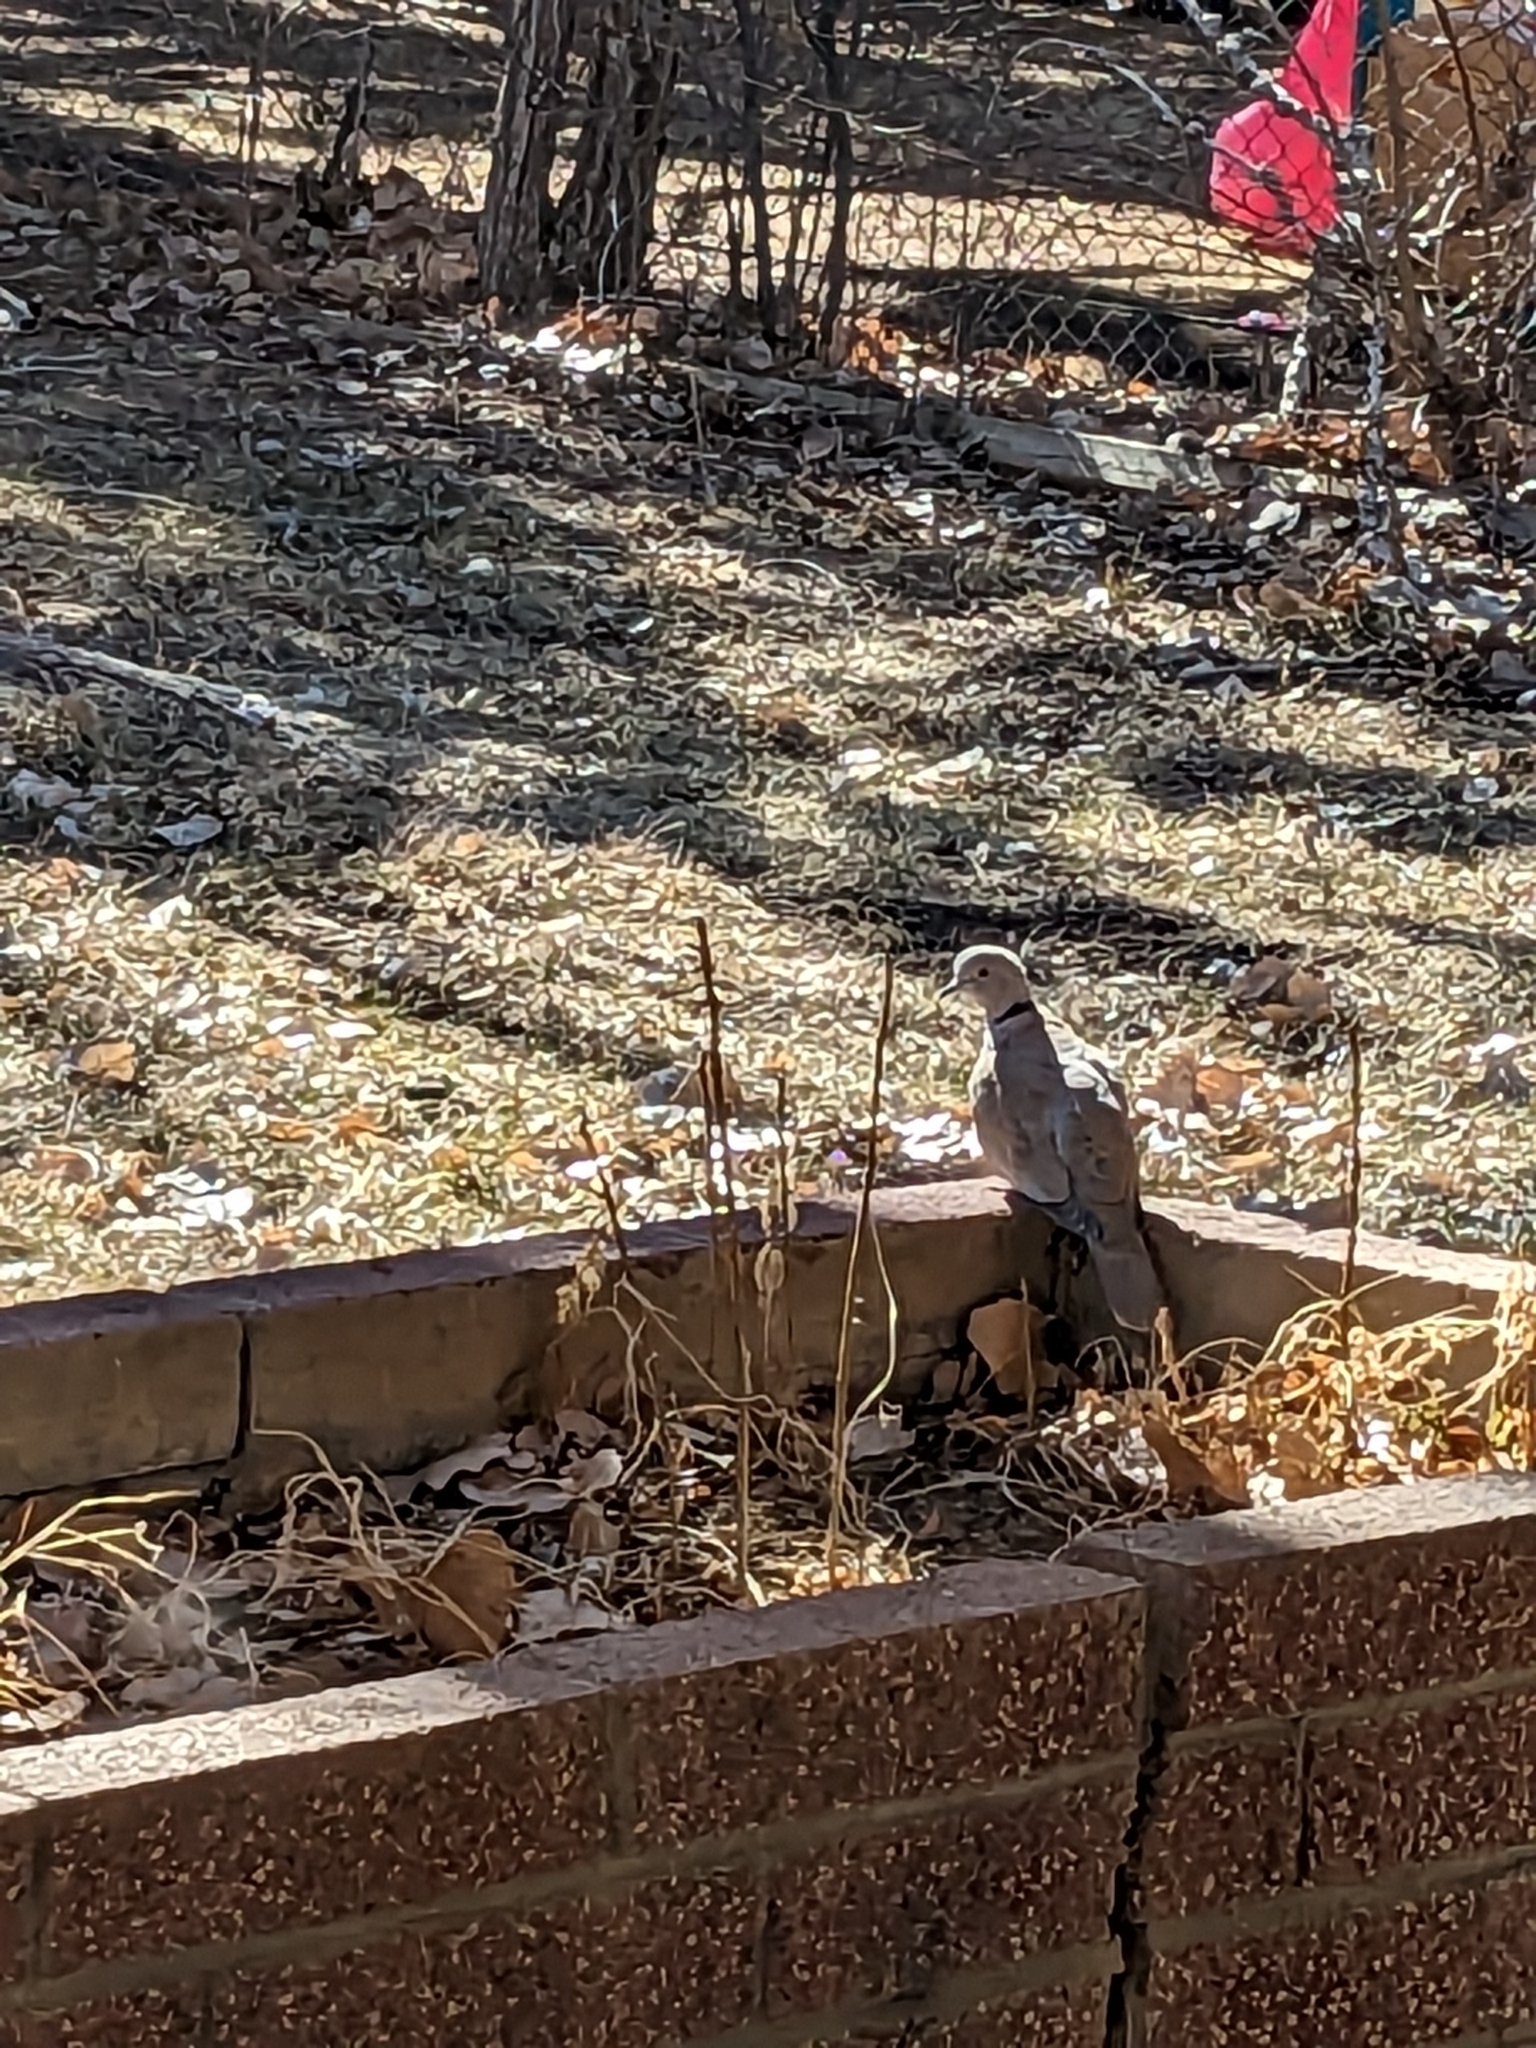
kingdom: Animalia
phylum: Chordata
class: Aves
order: Columbiformes
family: Columbidae
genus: Streptopelia
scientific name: Streptopelia decaocto
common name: Eurasian collared dove
